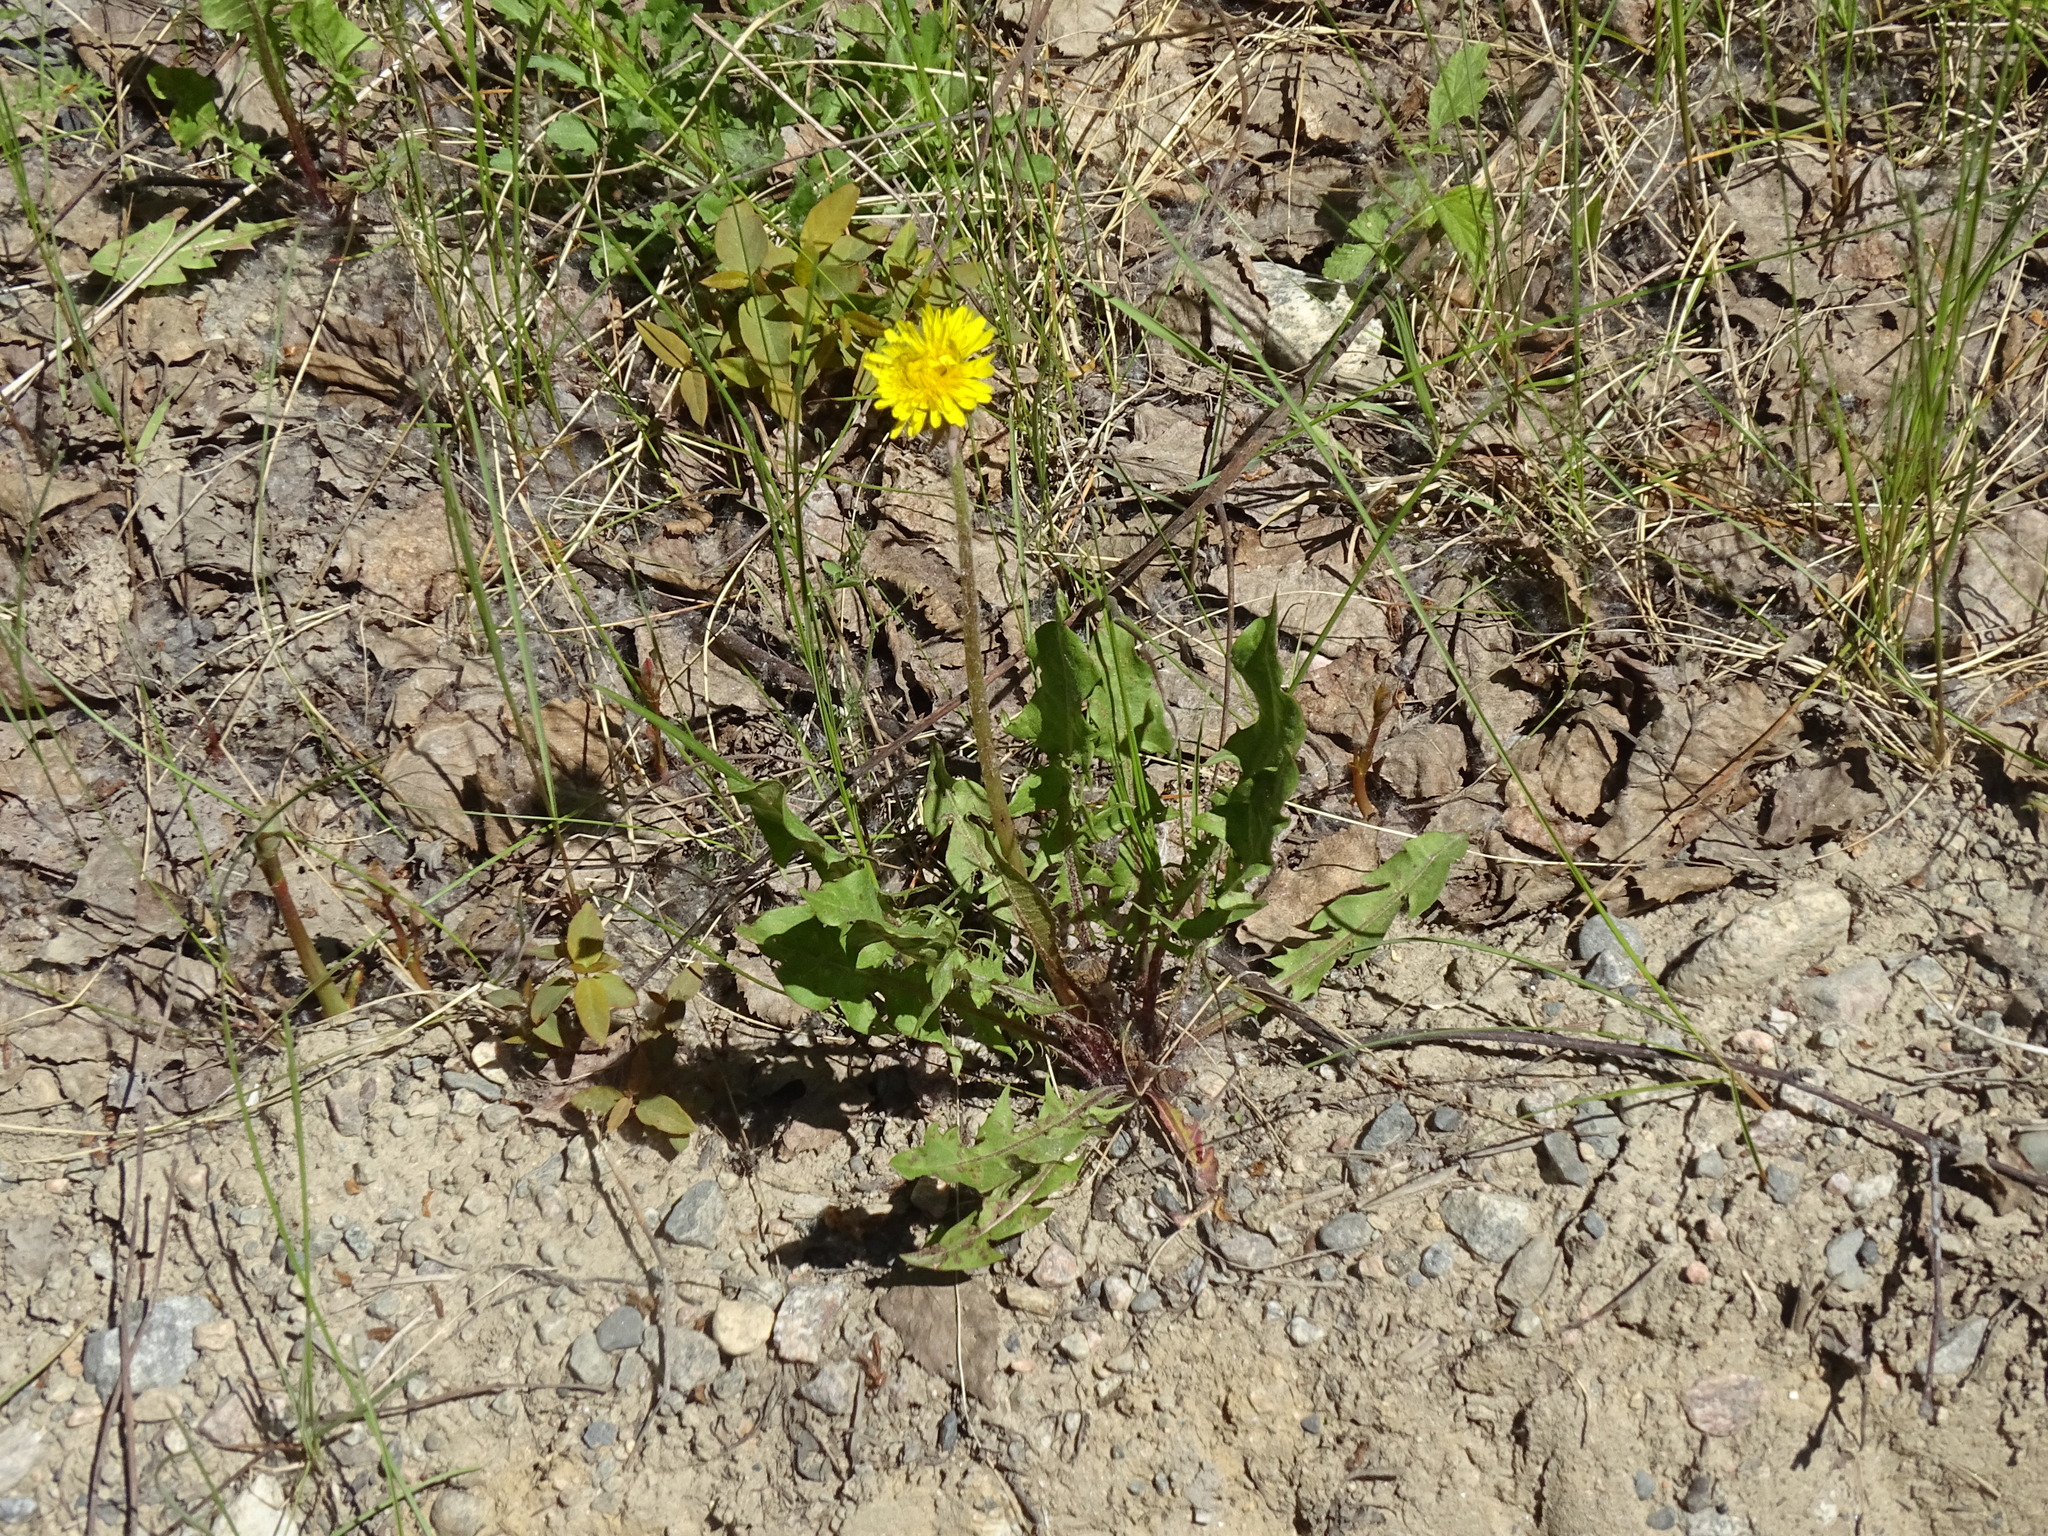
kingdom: Plantae
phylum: Tracheophyta
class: Magnoliopsida
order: Asterales
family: Asteraceae
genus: Taraxacum
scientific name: Taraxacum officinale
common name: Common dandelion
